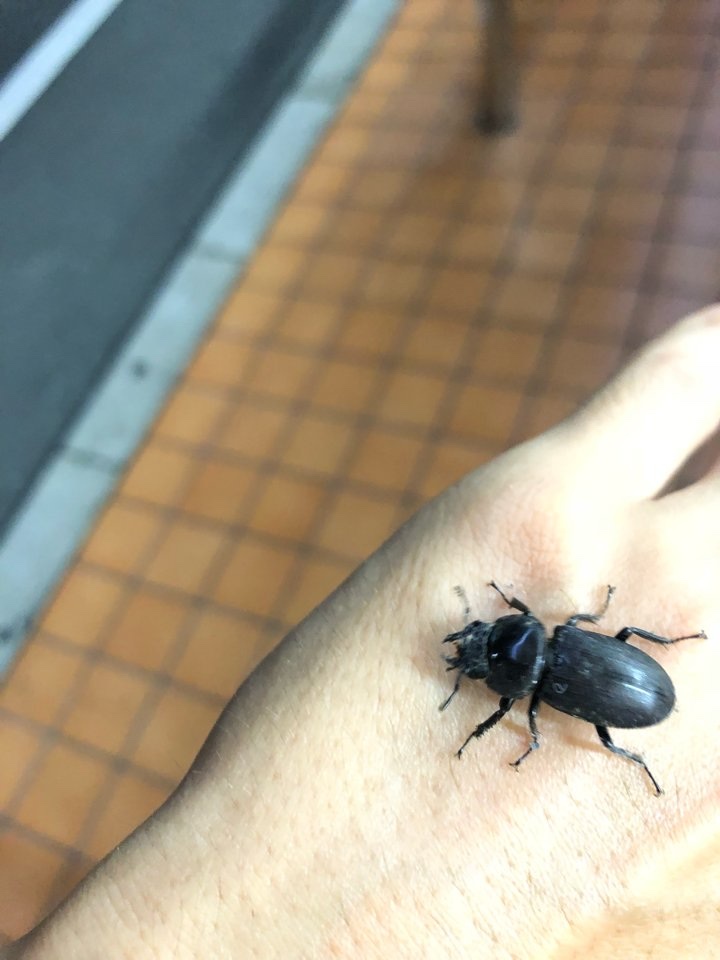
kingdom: Animalia
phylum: Arthropoda
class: Insecta
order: Coleoptera
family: Lucanidae
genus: Dorcus
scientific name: Dorcus rectus
